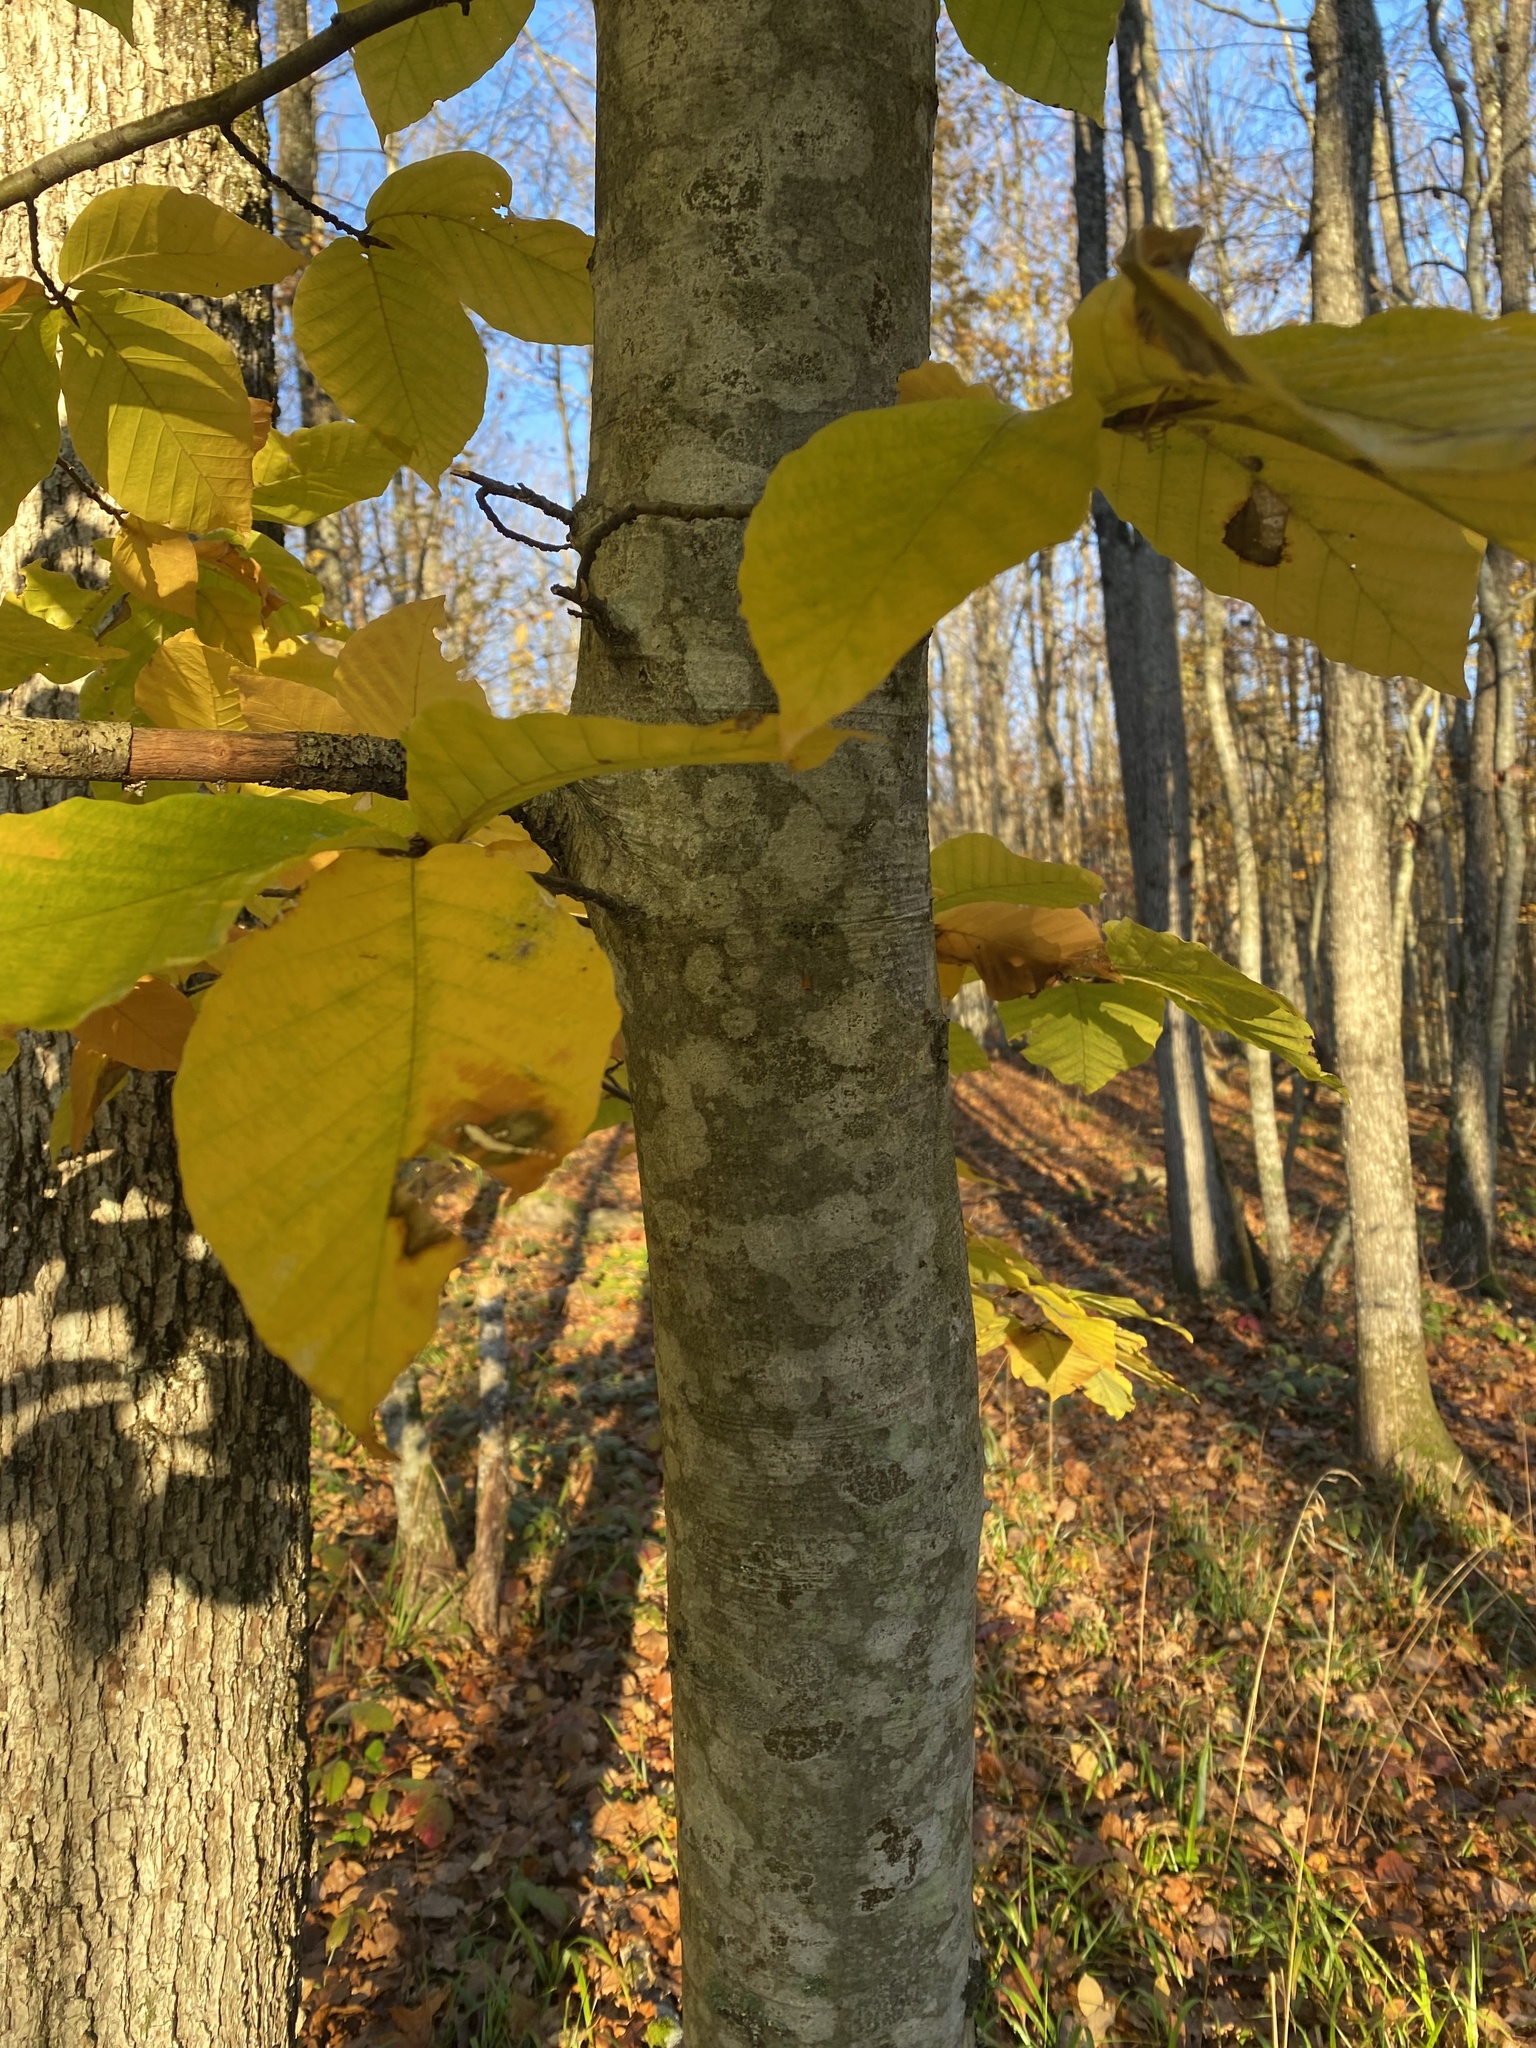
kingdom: Plantae
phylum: Tracheophyta
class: Magnoliopsida
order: Fagales
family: Fagaceae
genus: Fagus
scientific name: Fagus orientalis
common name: Oriental beech
